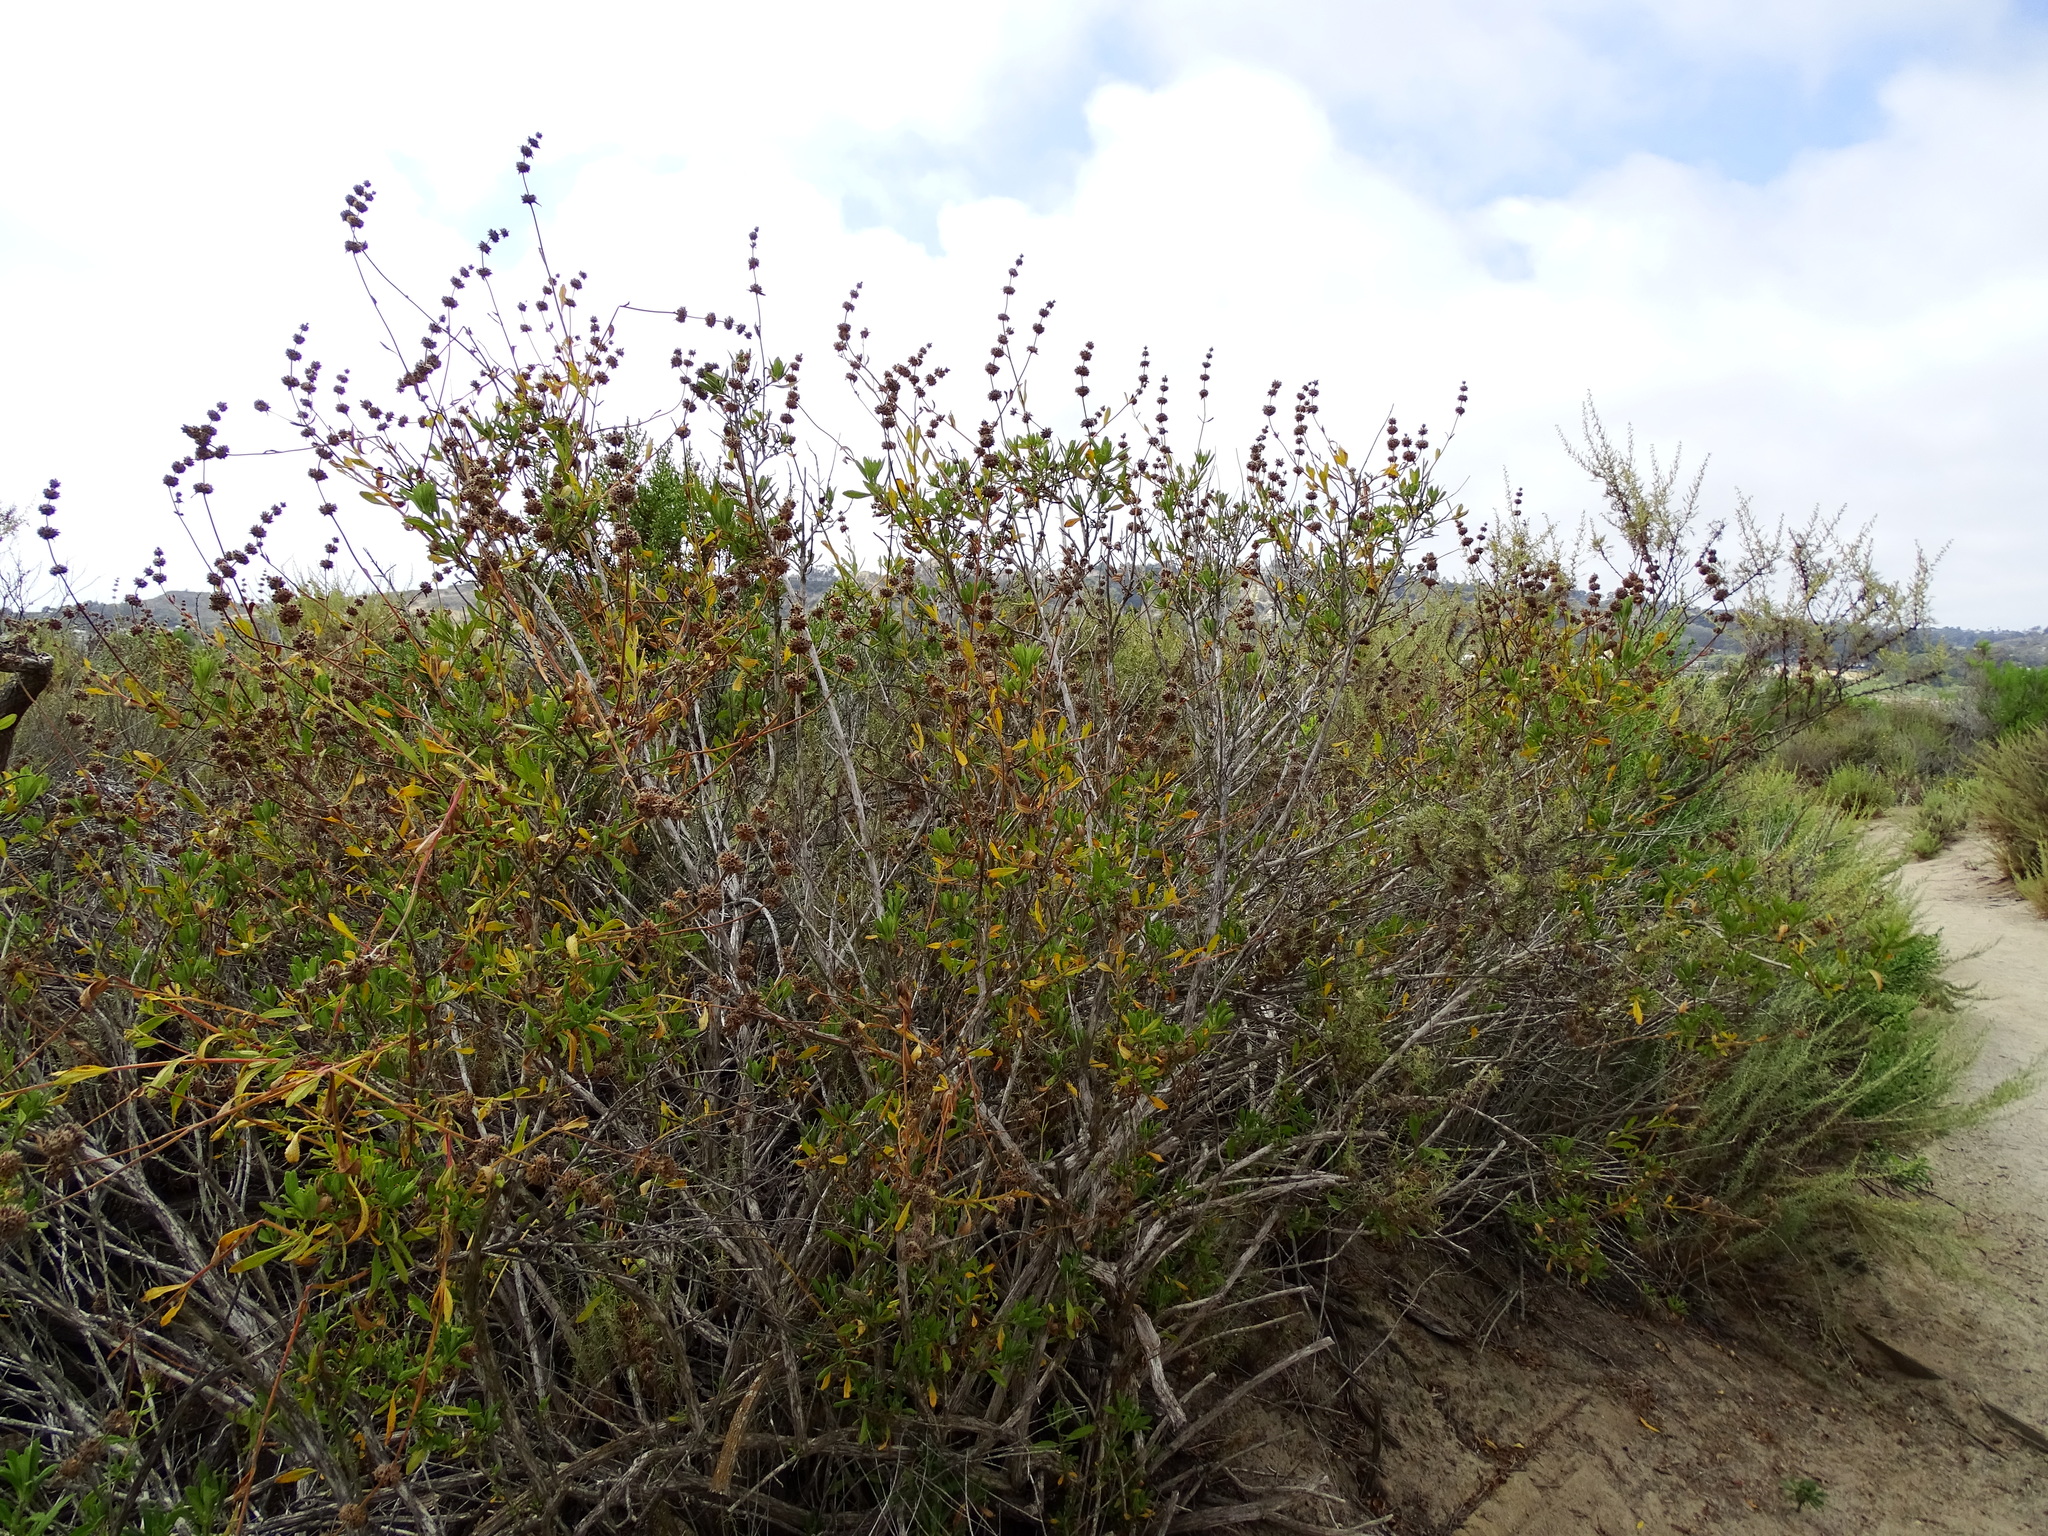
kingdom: Plantae
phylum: Tracheophyta
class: Magnoliopsida
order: Lamiales
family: Lamiaceae
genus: Salvia
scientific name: Salvia mellifera
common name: Black sage
